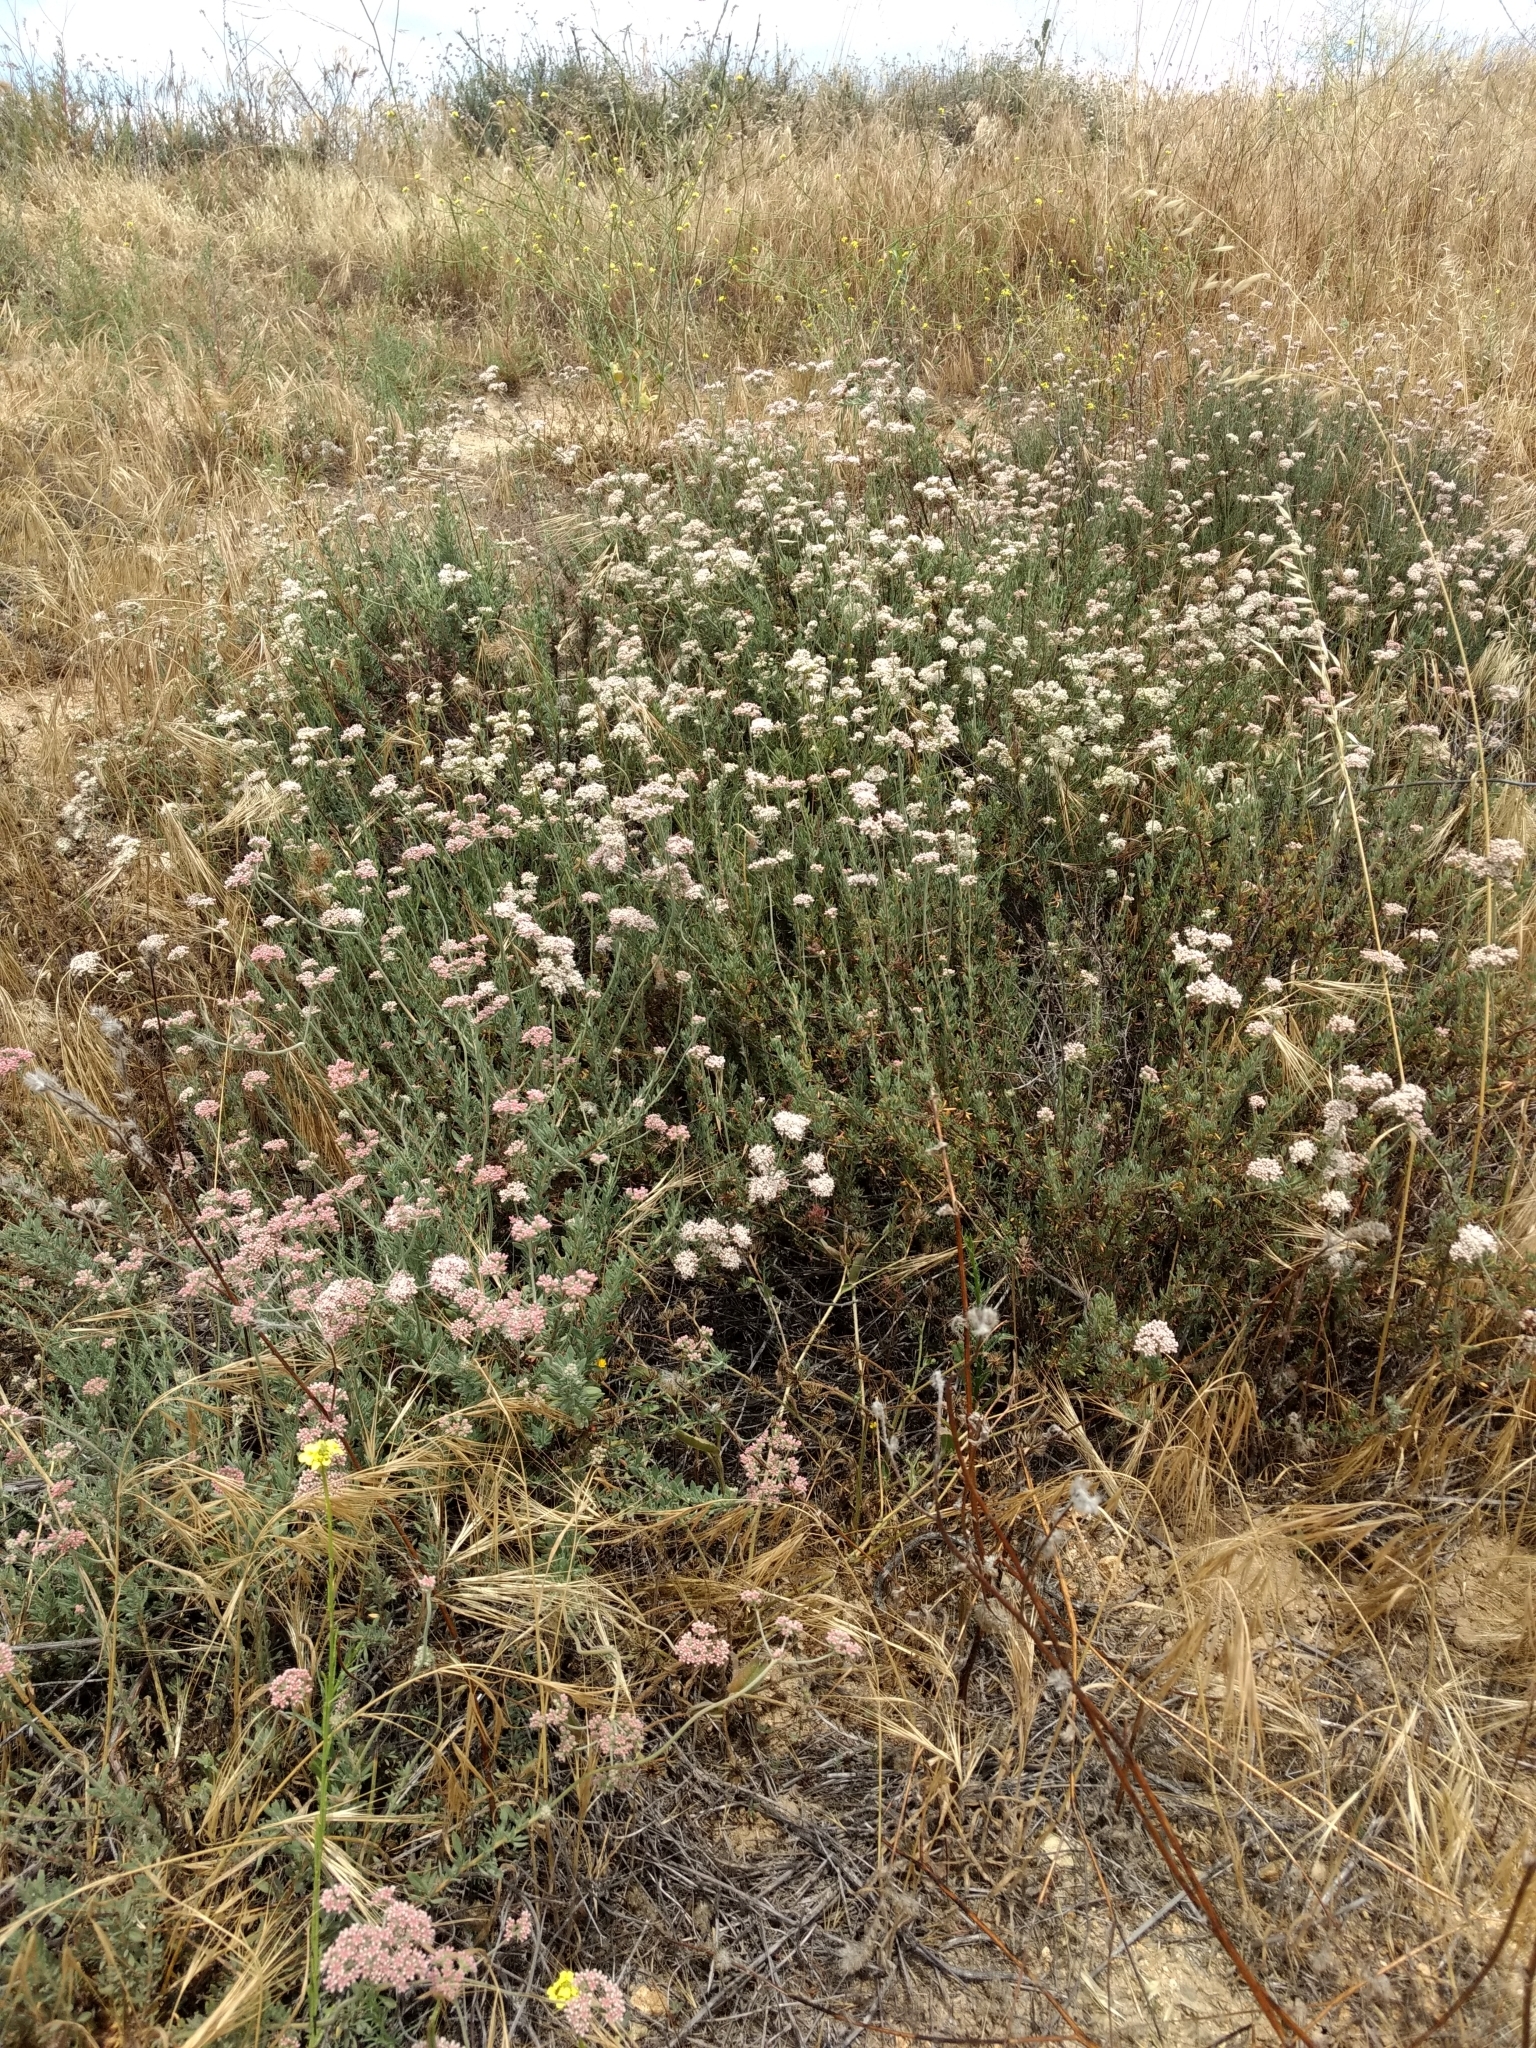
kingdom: Plantae
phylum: Tracheophyta
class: Magnoliopsida
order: Caryophyllales
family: Polygonaceae
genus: Eriogonum
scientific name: Eriogonum fasciculatum
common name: California wild buckwheat
